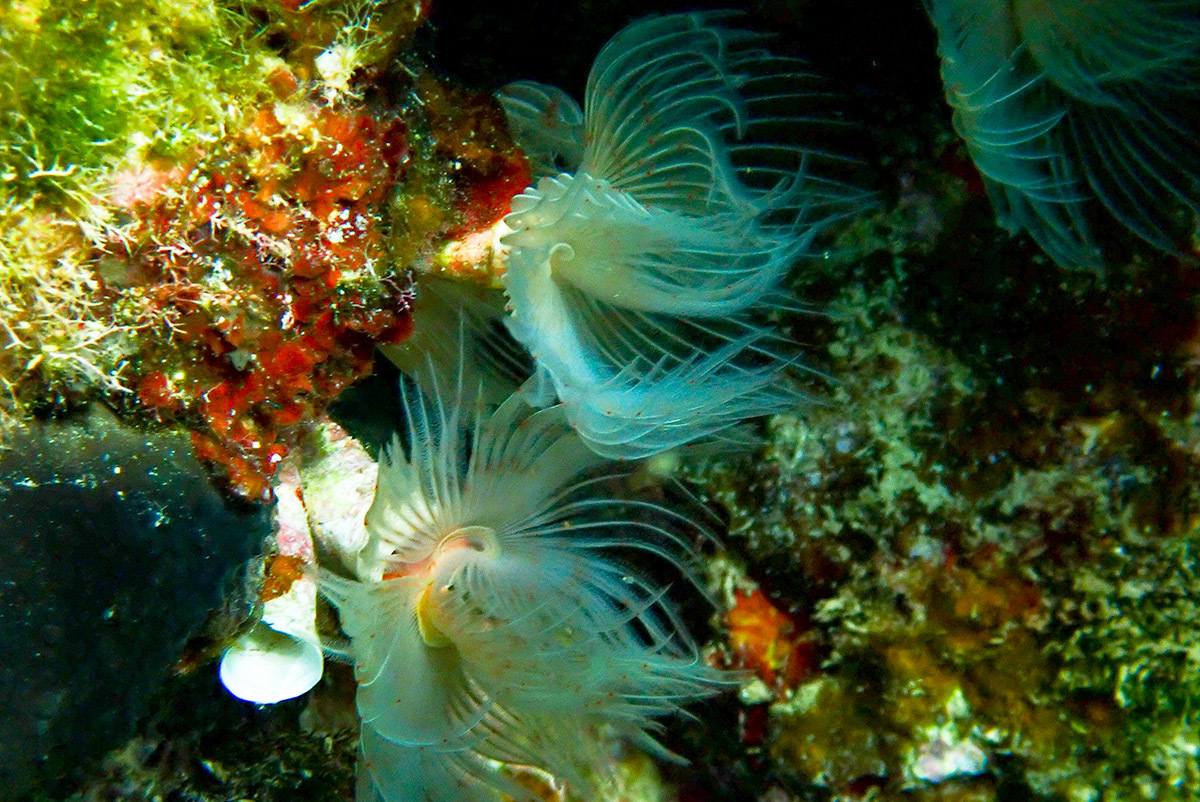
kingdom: Animalia
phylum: Annelida
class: Polychaeta
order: Sabellida
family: Serpulidae
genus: Protula
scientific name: Protula tubularia
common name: Red-spotted horseshoe
